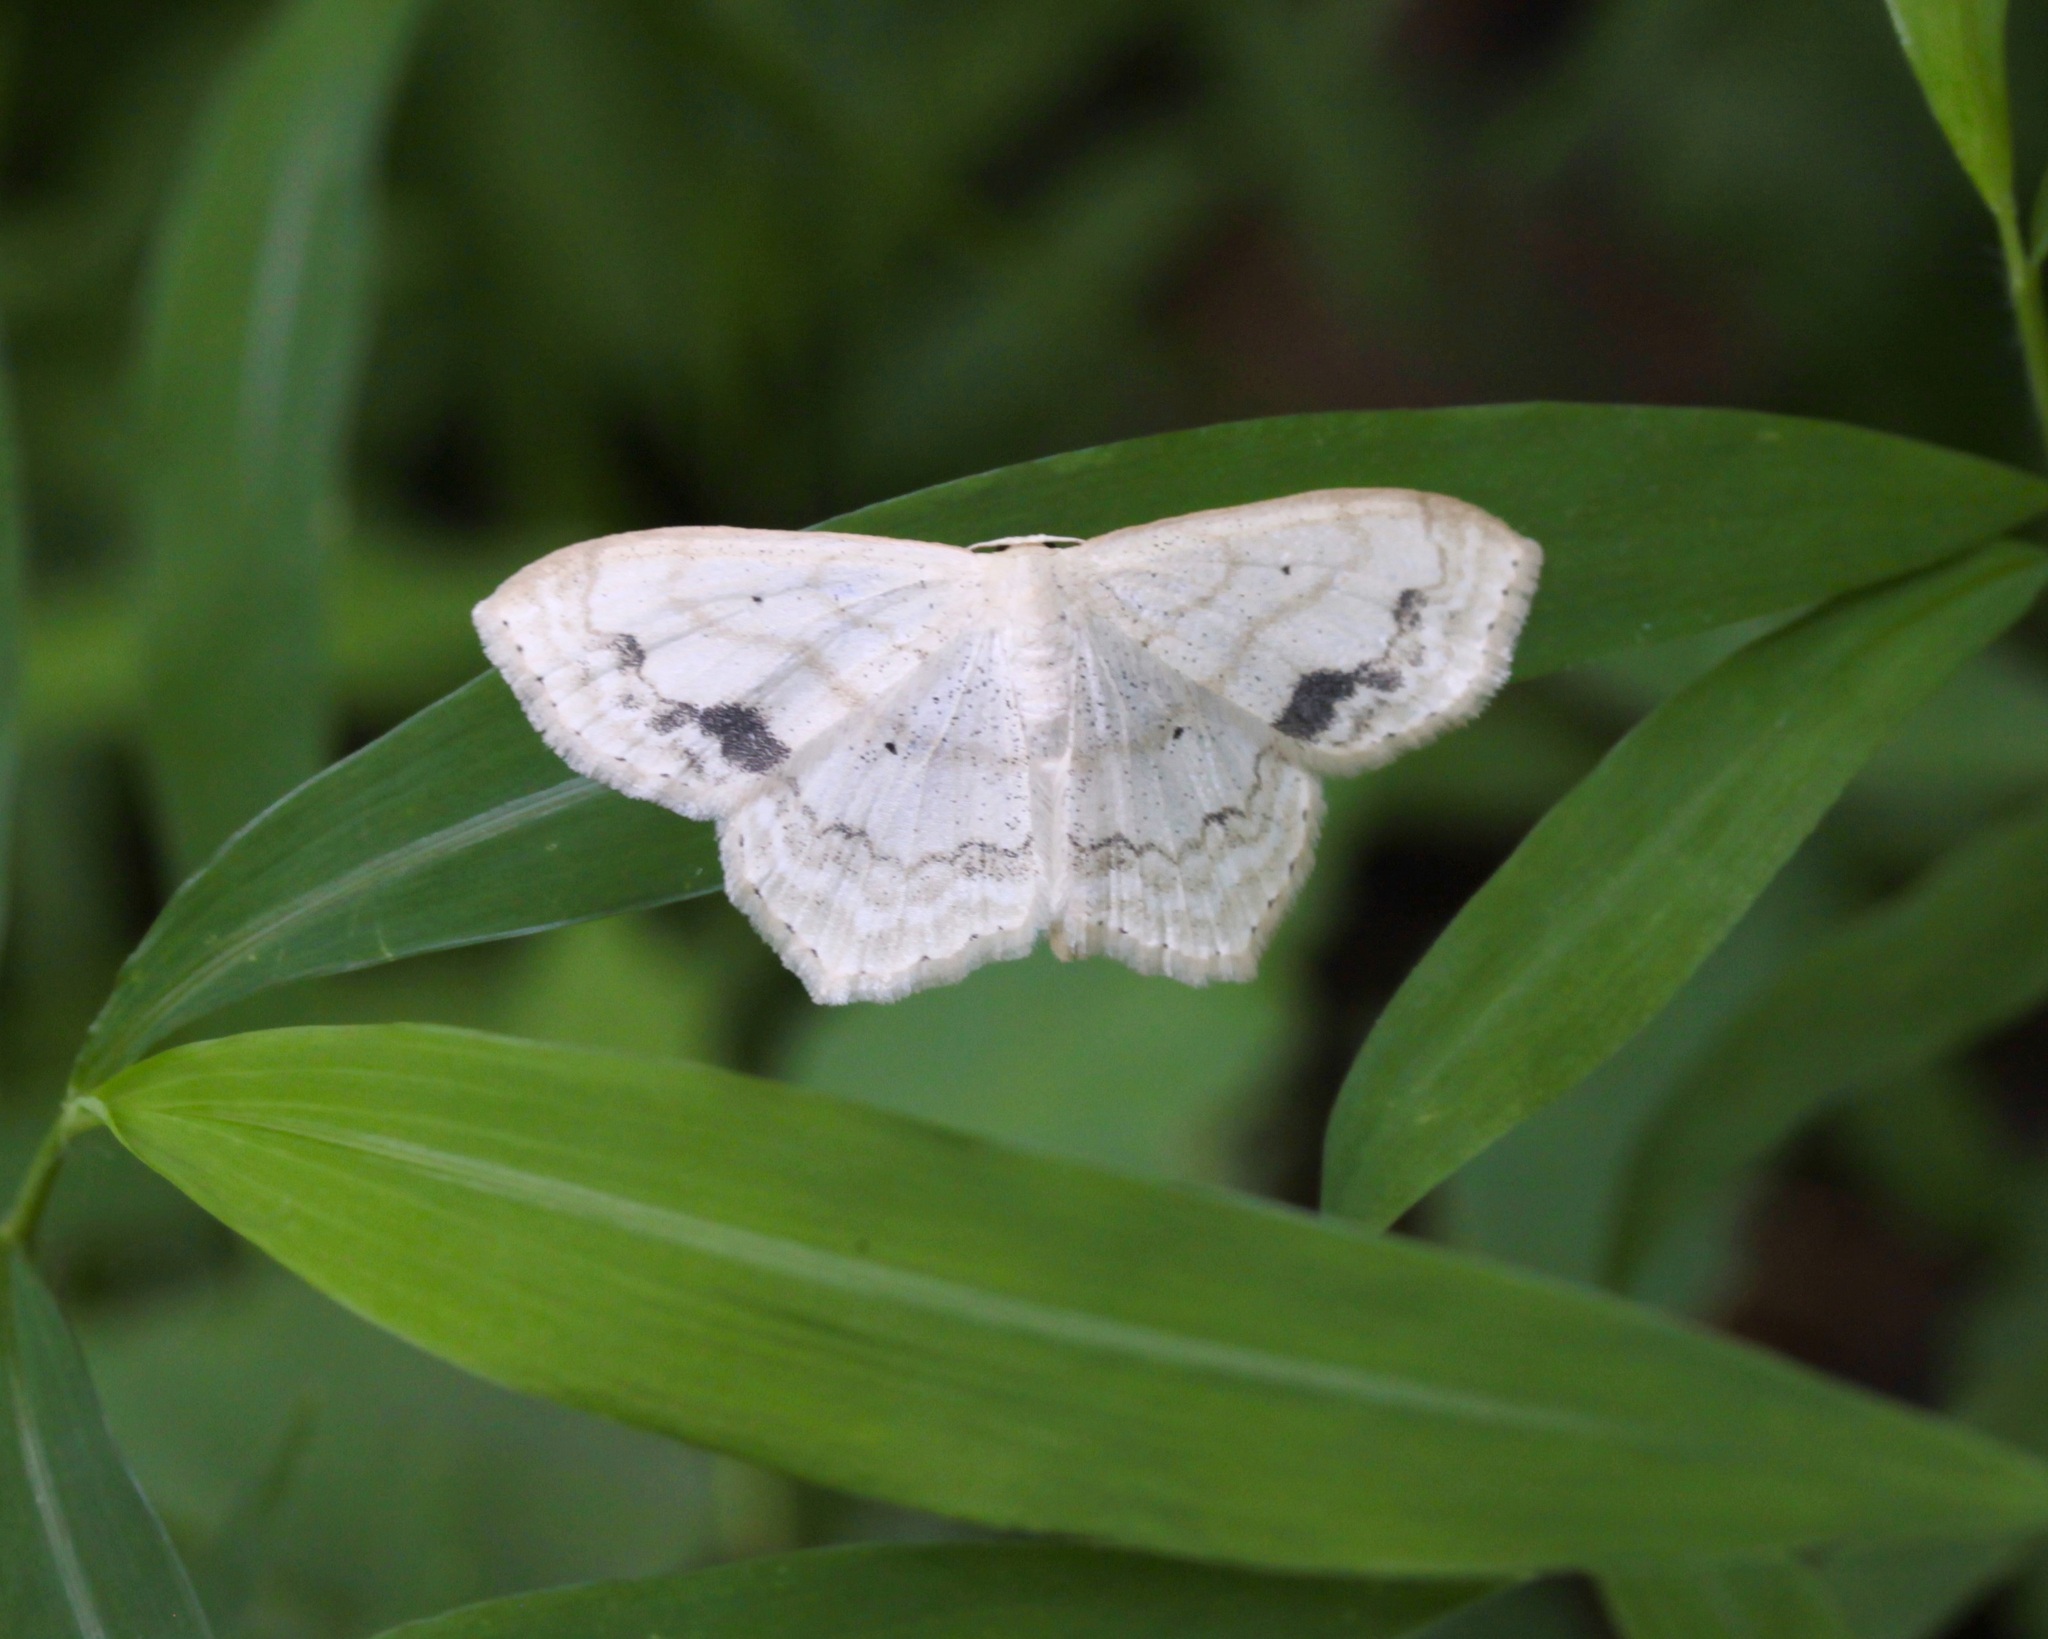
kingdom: Animalia
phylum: Arthropoda
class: Insecta
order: Lepidoptera
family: Geometridae
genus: Scopula
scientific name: Scopula limboundata
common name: Large lace border
